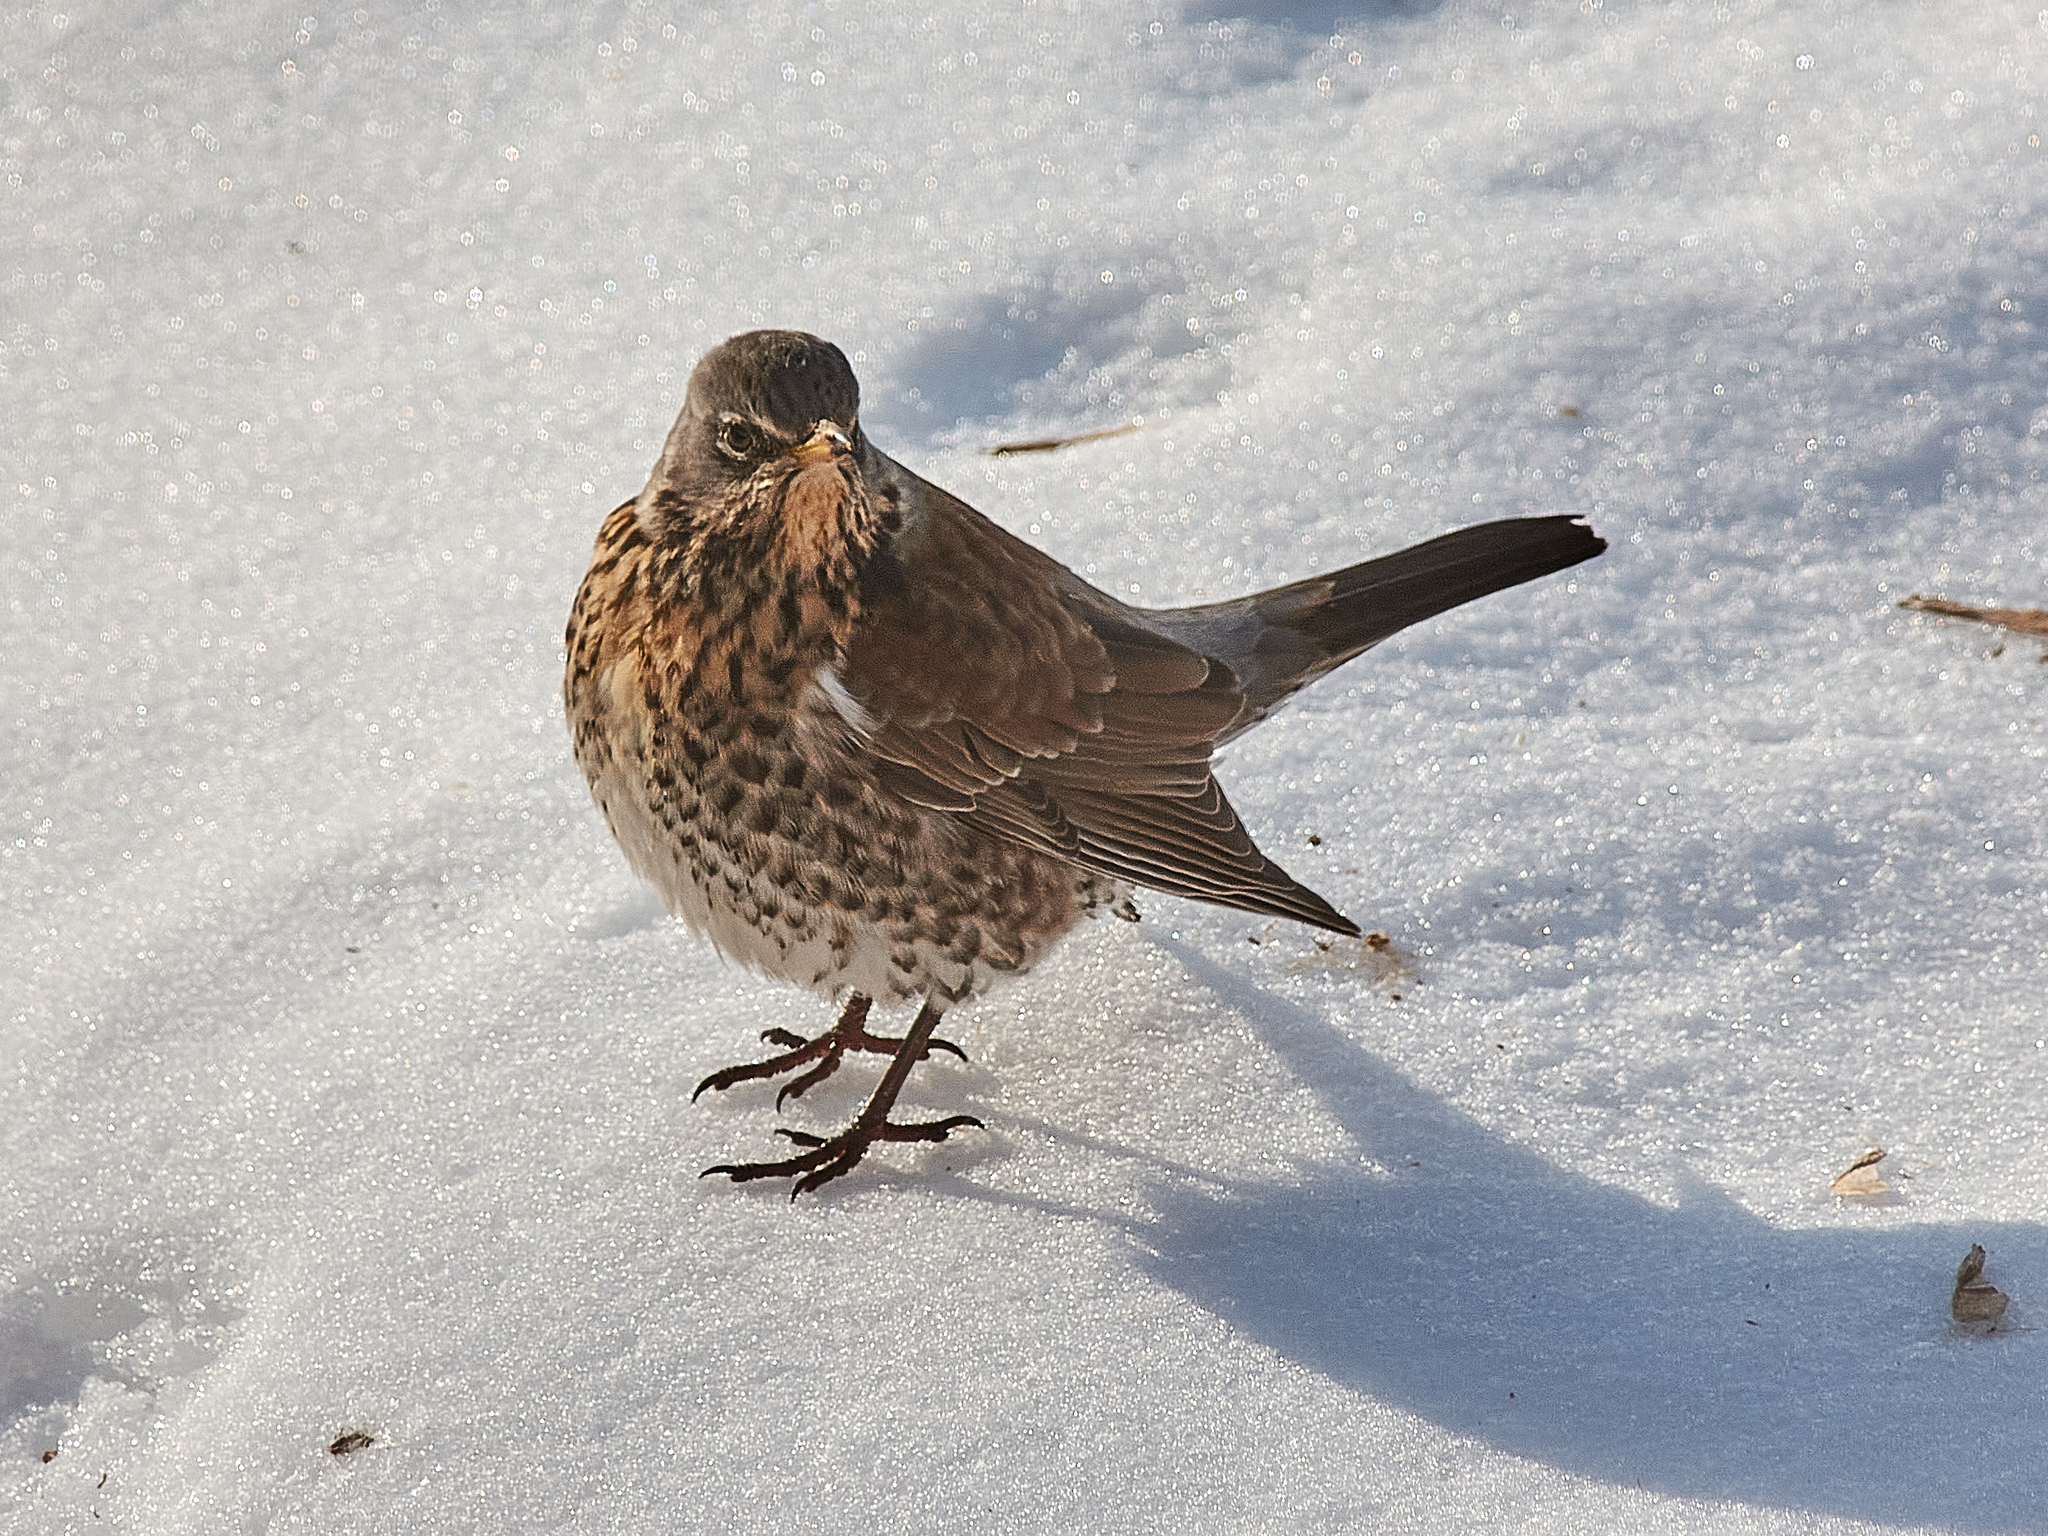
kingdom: Animalia
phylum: Chordata
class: Aves
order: Passeriformes
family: Turdidae
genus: Turdus
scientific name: Turdus pilaris
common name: Fieldfare
